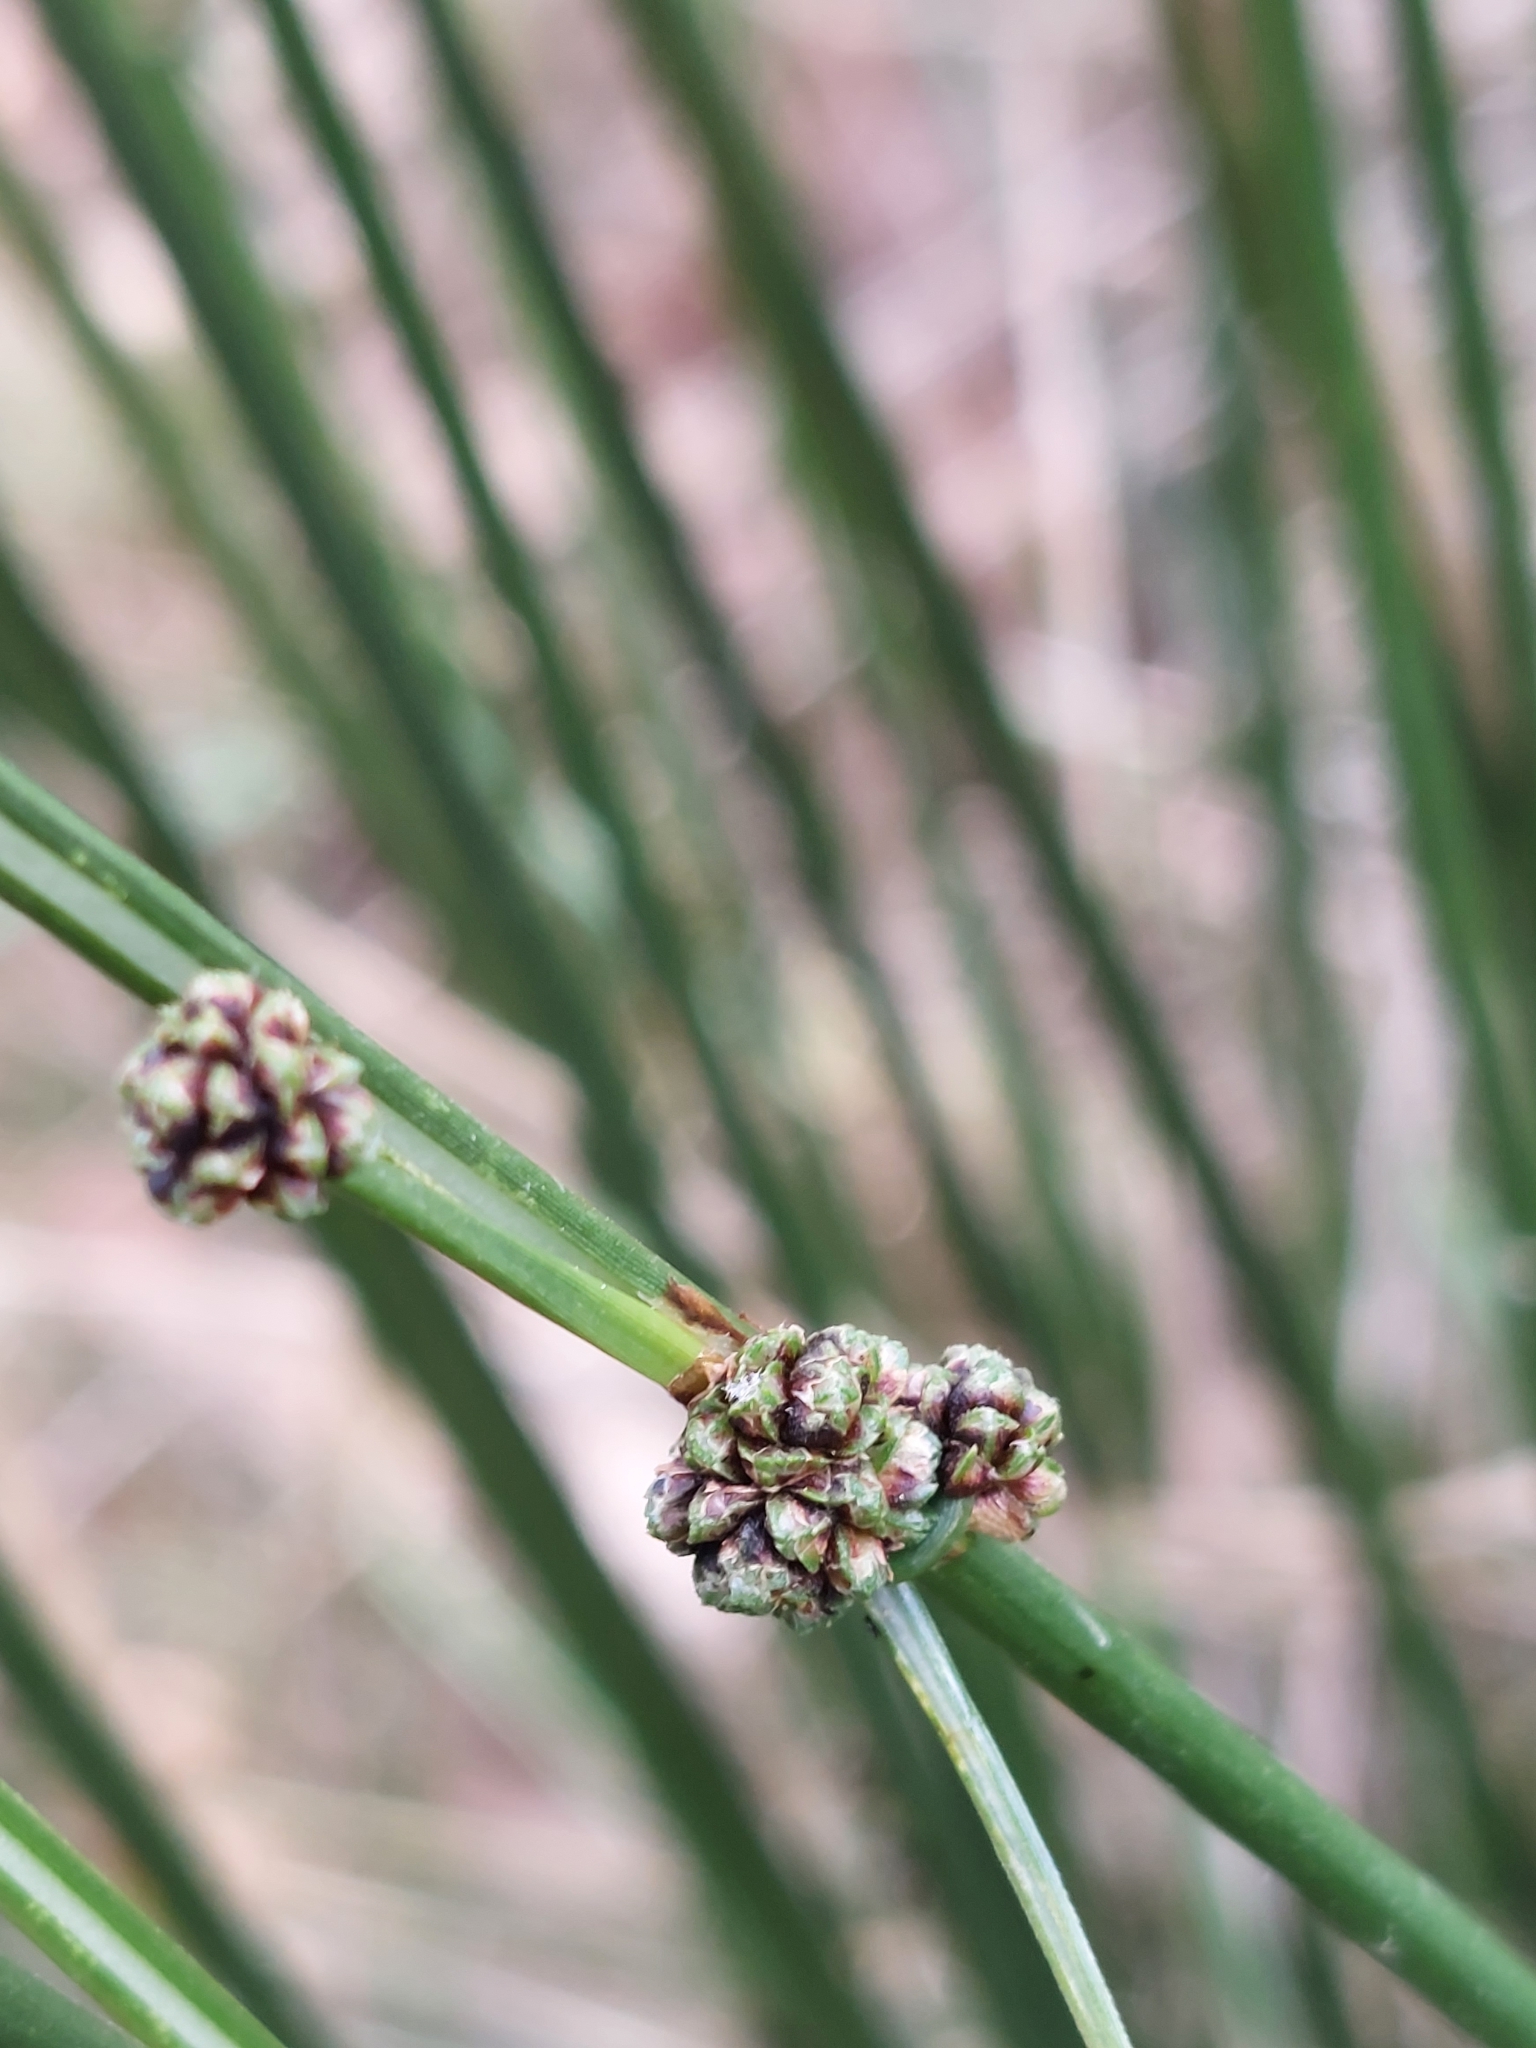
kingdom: Plantae
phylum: Tracheophyta
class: Liliopsida
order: Poales
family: Cyperaceae
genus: Scirpoides
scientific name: Scirpoides holoschoenus
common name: Round-headed club-rush
